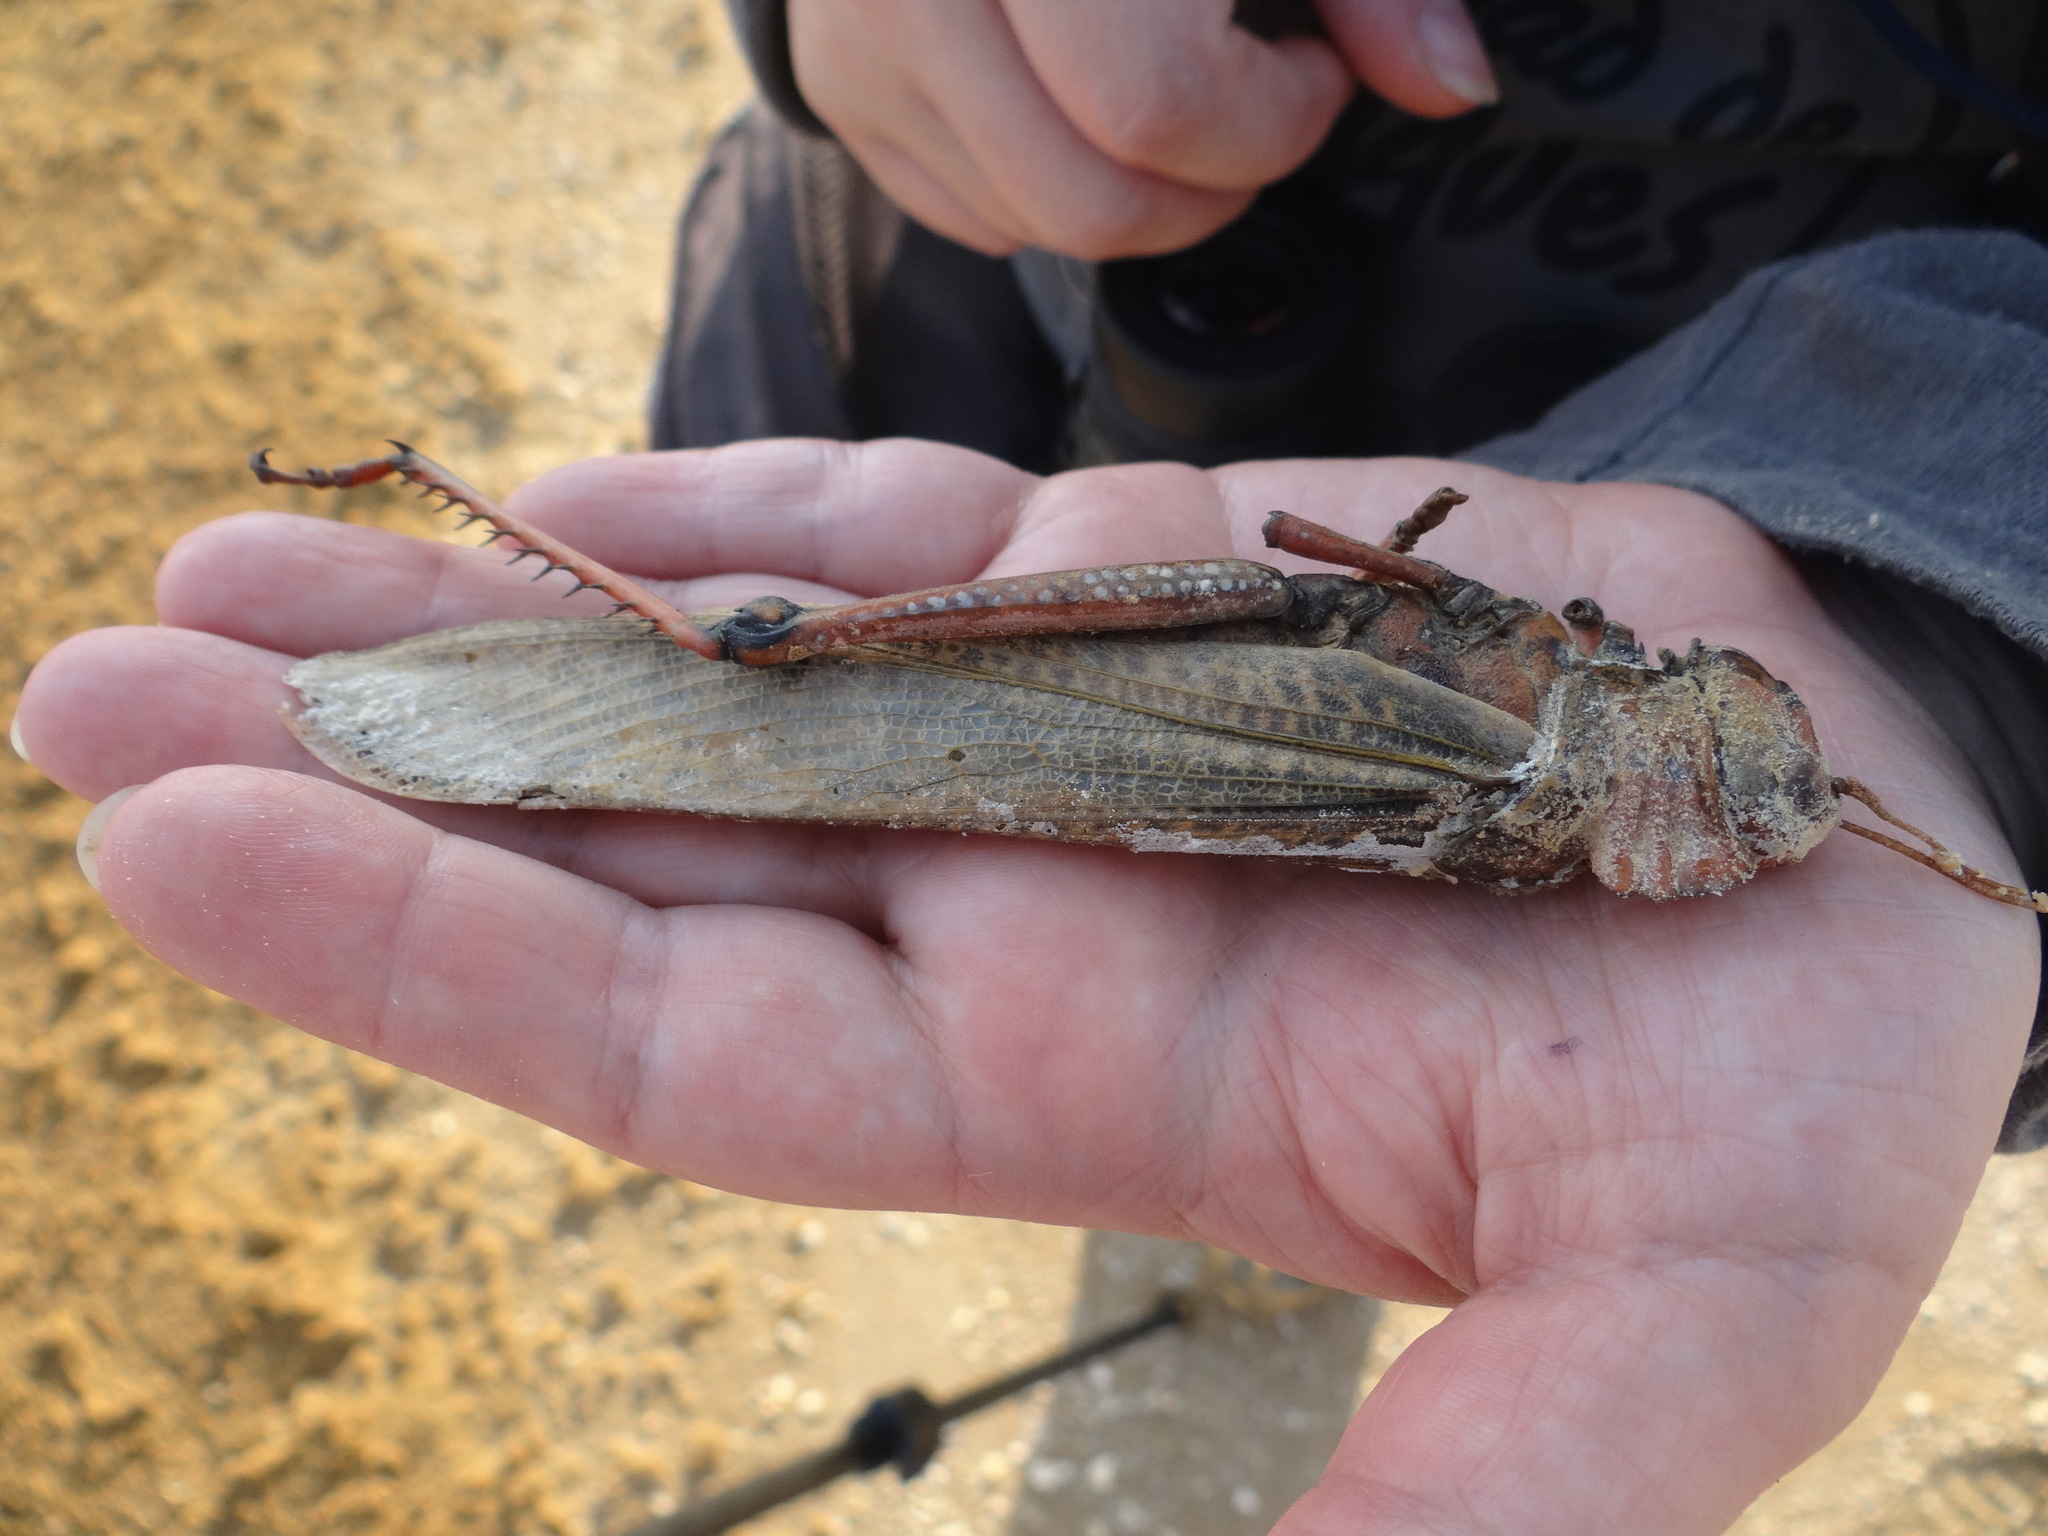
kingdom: Animalia
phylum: Arthropoda
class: Insecta
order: Orthoptera
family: Romaleidae
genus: Tropidacris
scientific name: Tropidacris collaris
